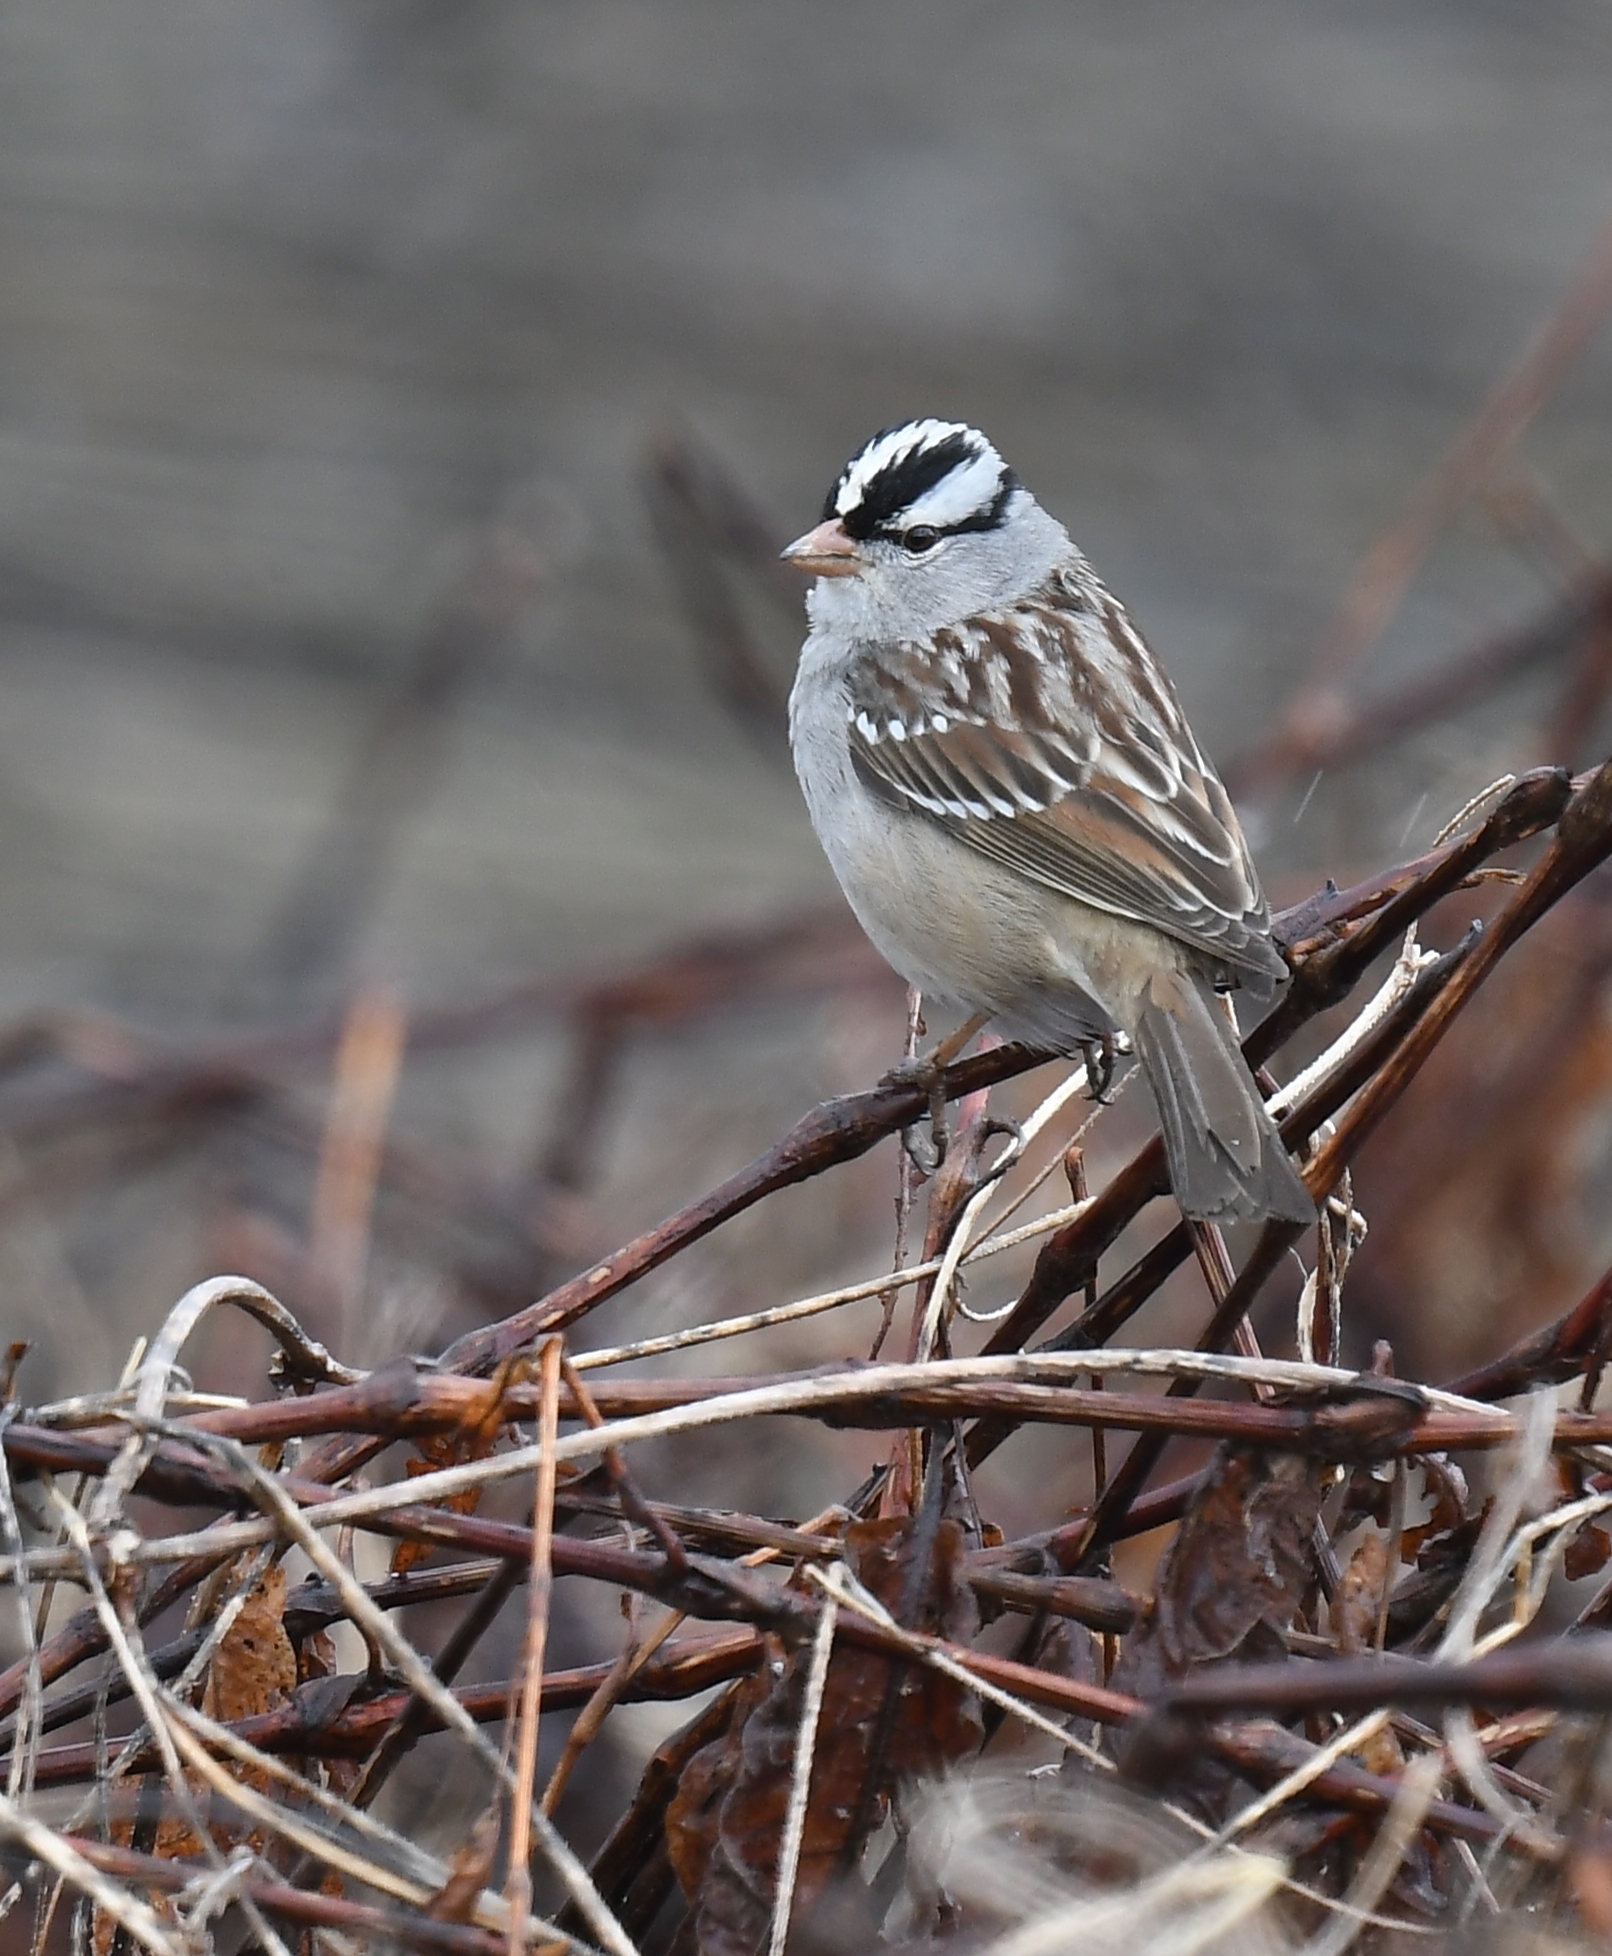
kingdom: Animalia
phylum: Chordata
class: Aves
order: Passeriformes
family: Passerellidae
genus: Zonotrichia
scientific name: Zonotrichia leucophrys
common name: White-crowned sparrow
